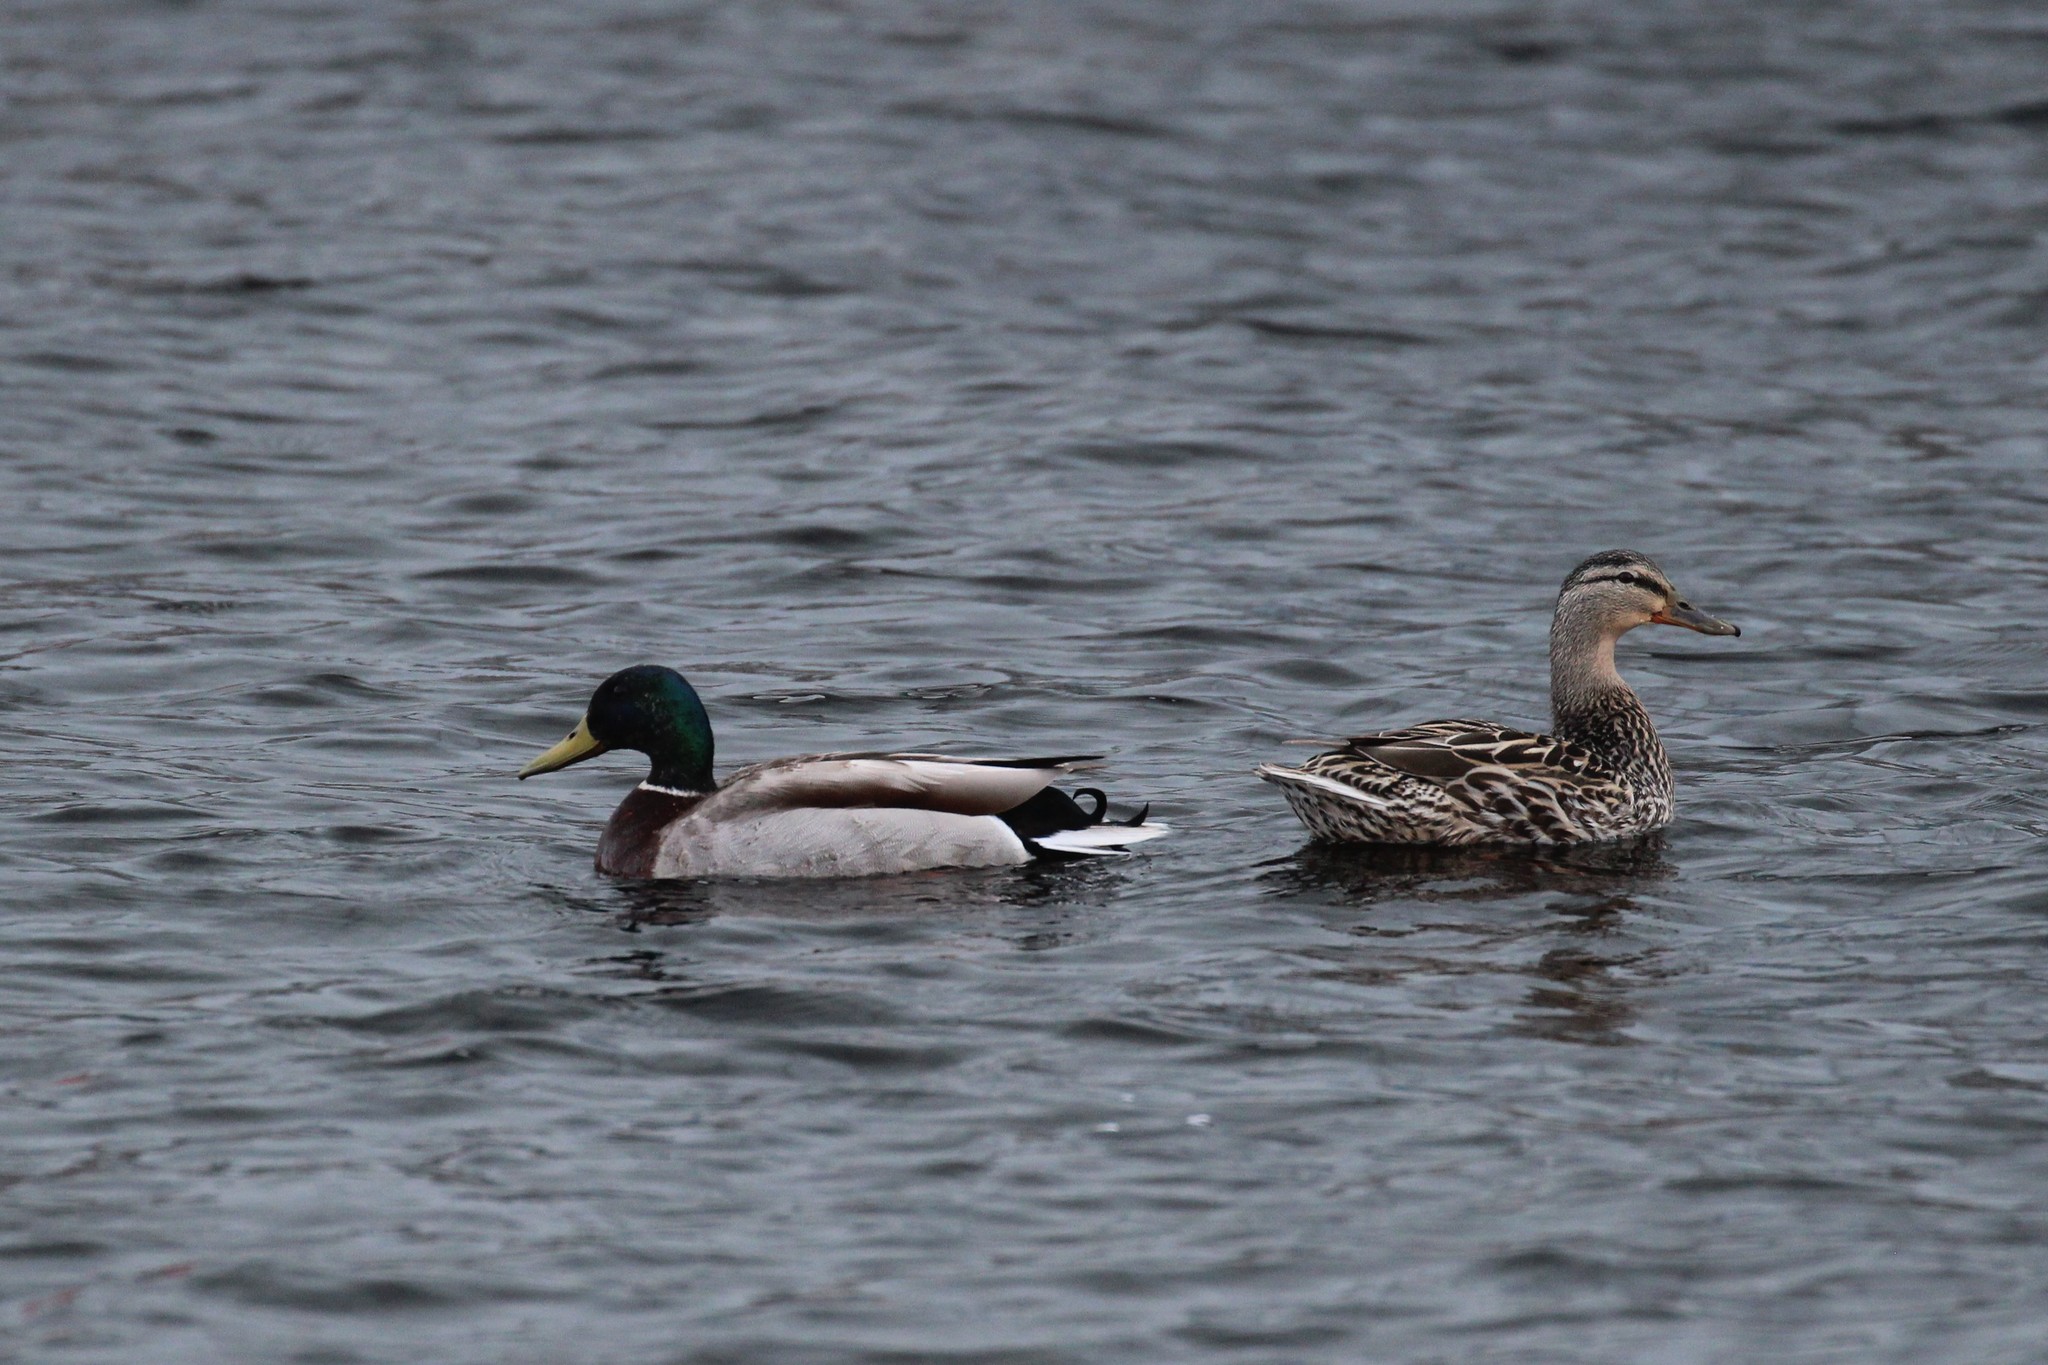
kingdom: Animalia
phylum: Chordata
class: Aves
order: Anseriformes
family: Anatidae
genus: Anas
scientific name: Anas platyrhynchos
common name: Mallard
